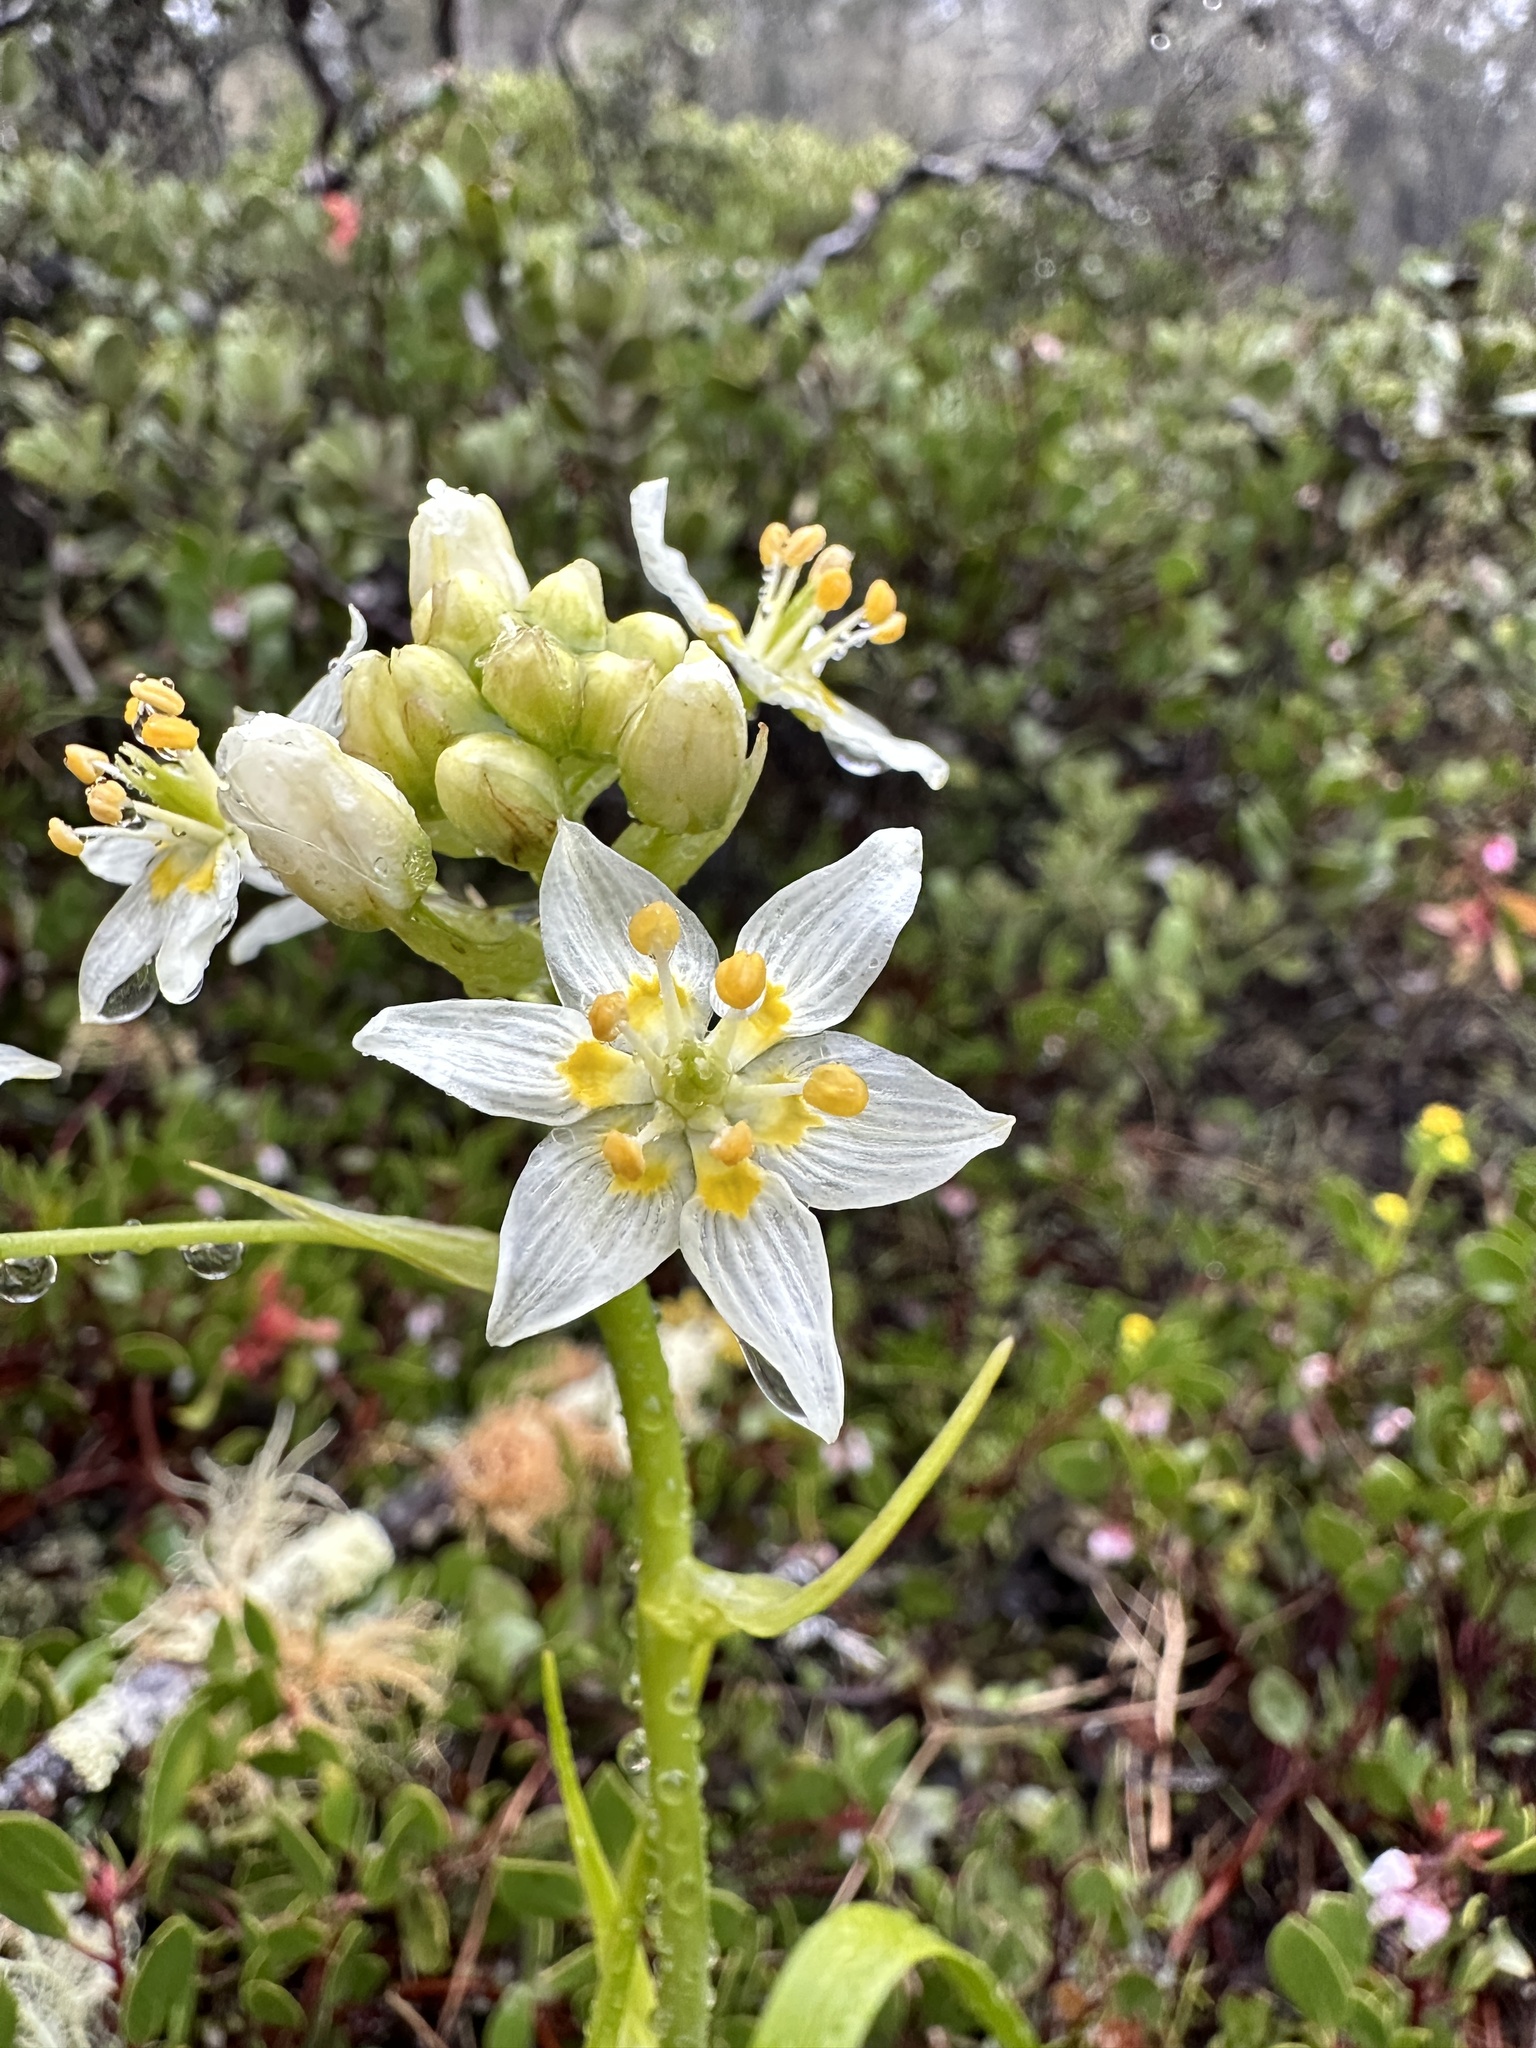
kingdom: Plantae
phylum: Tracheophyta
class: Liliopsida
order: Liliales
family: Melanthiaceae
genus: Toxicoscordion
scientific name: Toxicoscordion fremontii
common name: Fremont's death camas
